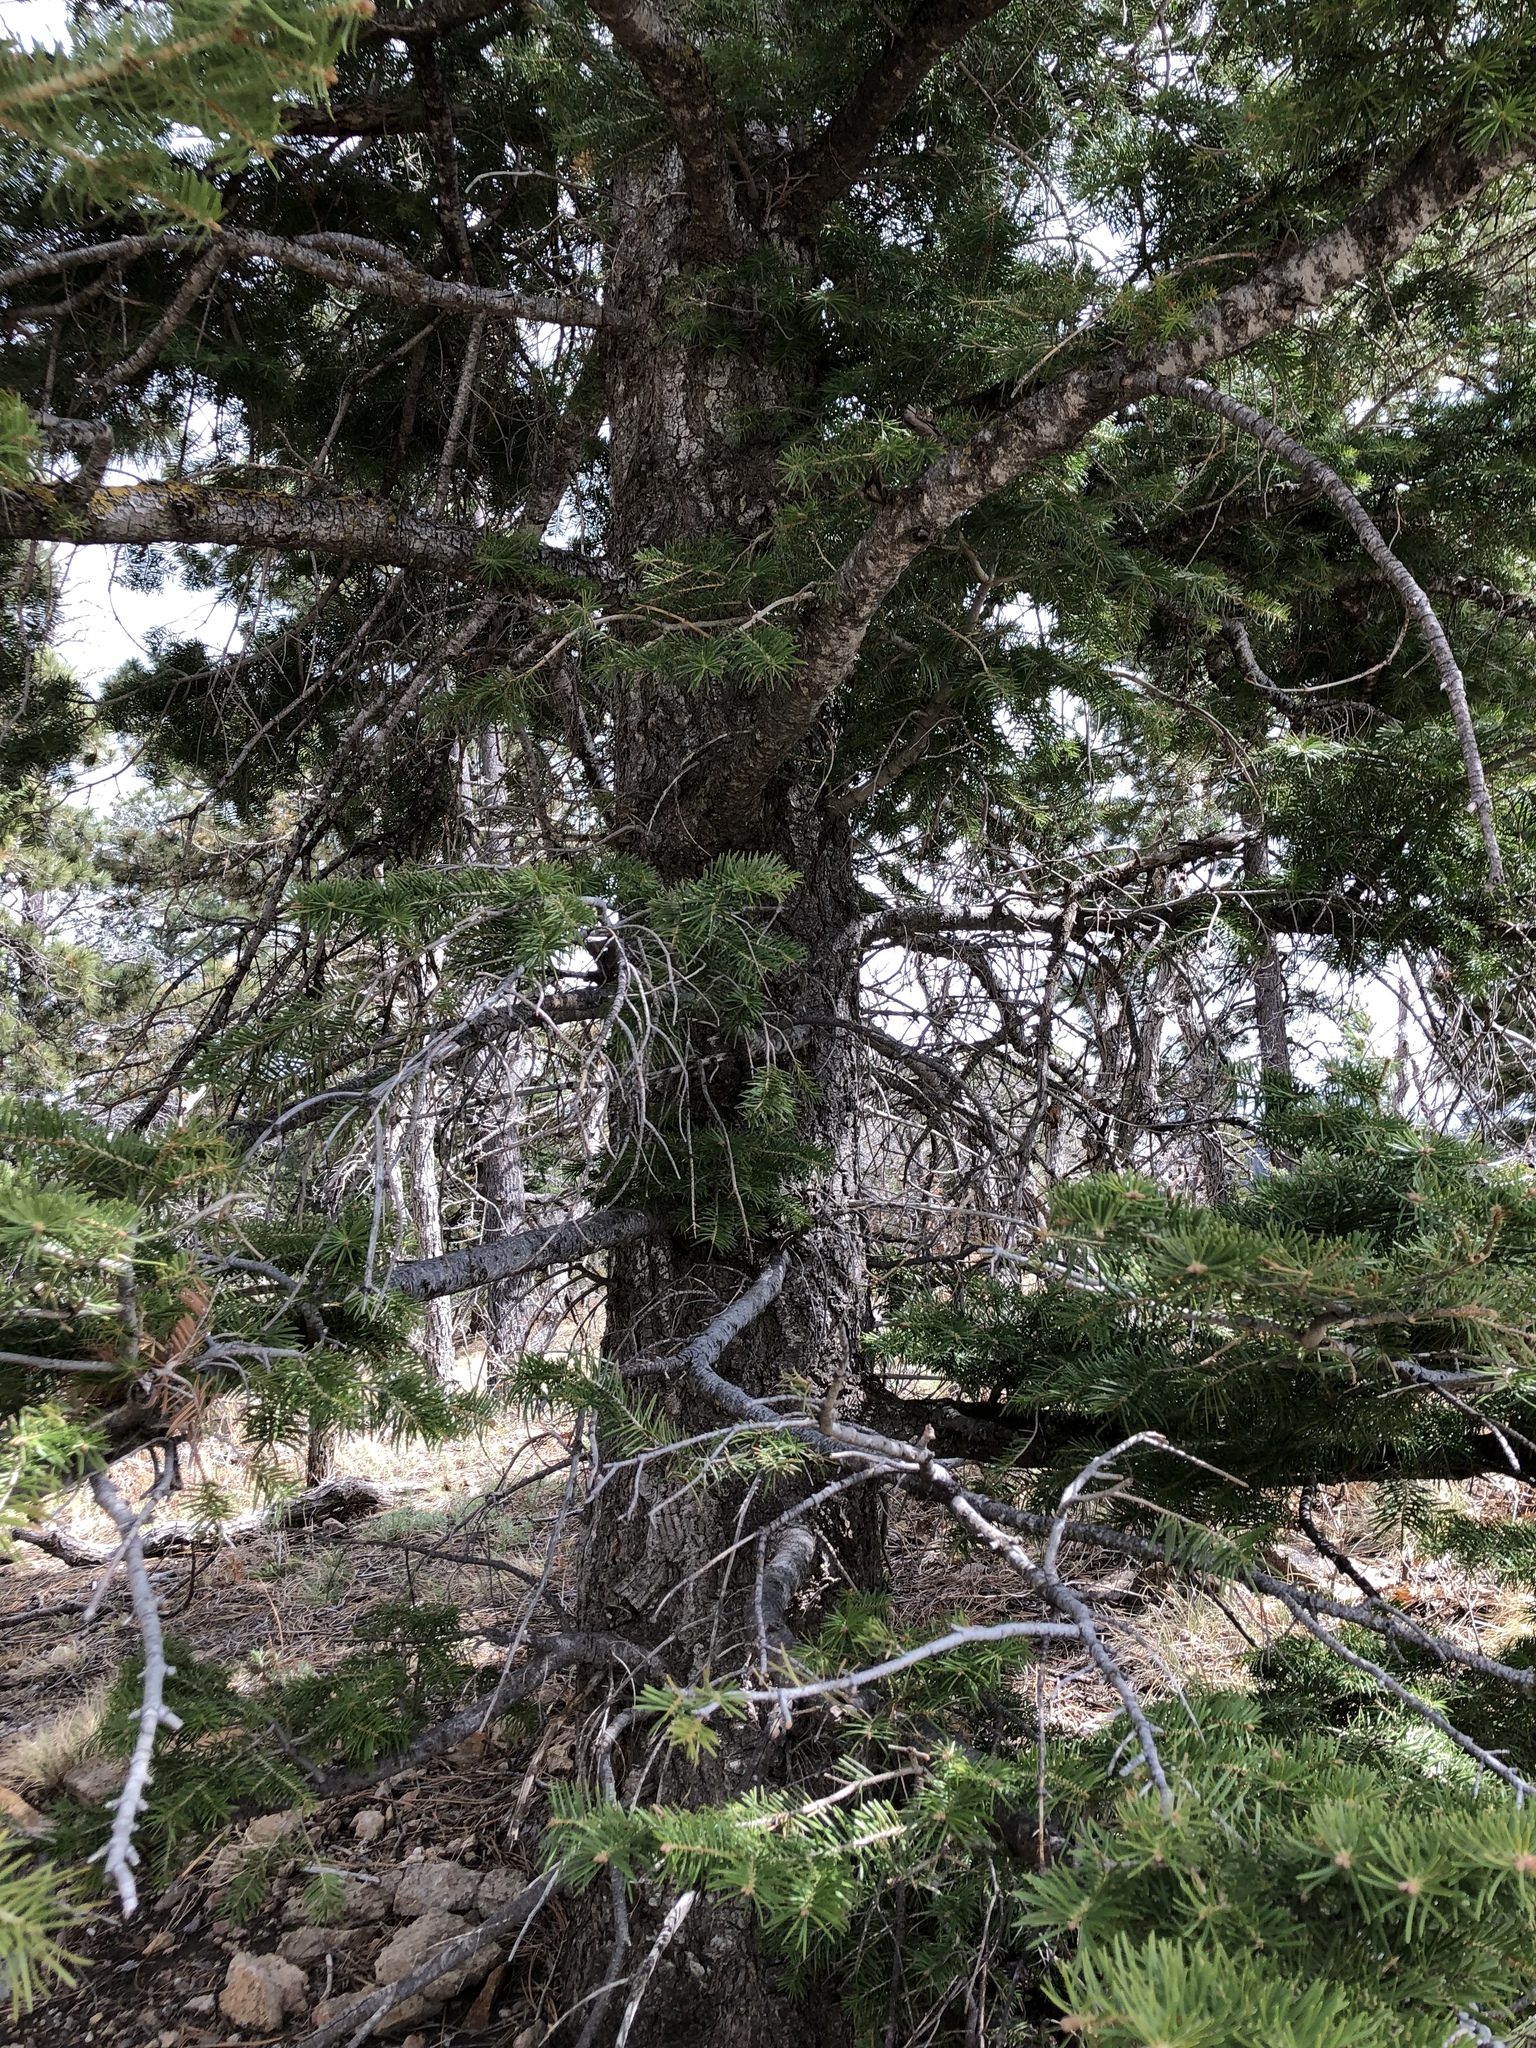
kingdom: Plantae
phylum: Tracheophyta
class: Pinopsida
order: Pinales
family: Pinaceae
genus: Abies
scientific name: Abies concolor
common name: Colorado fir
